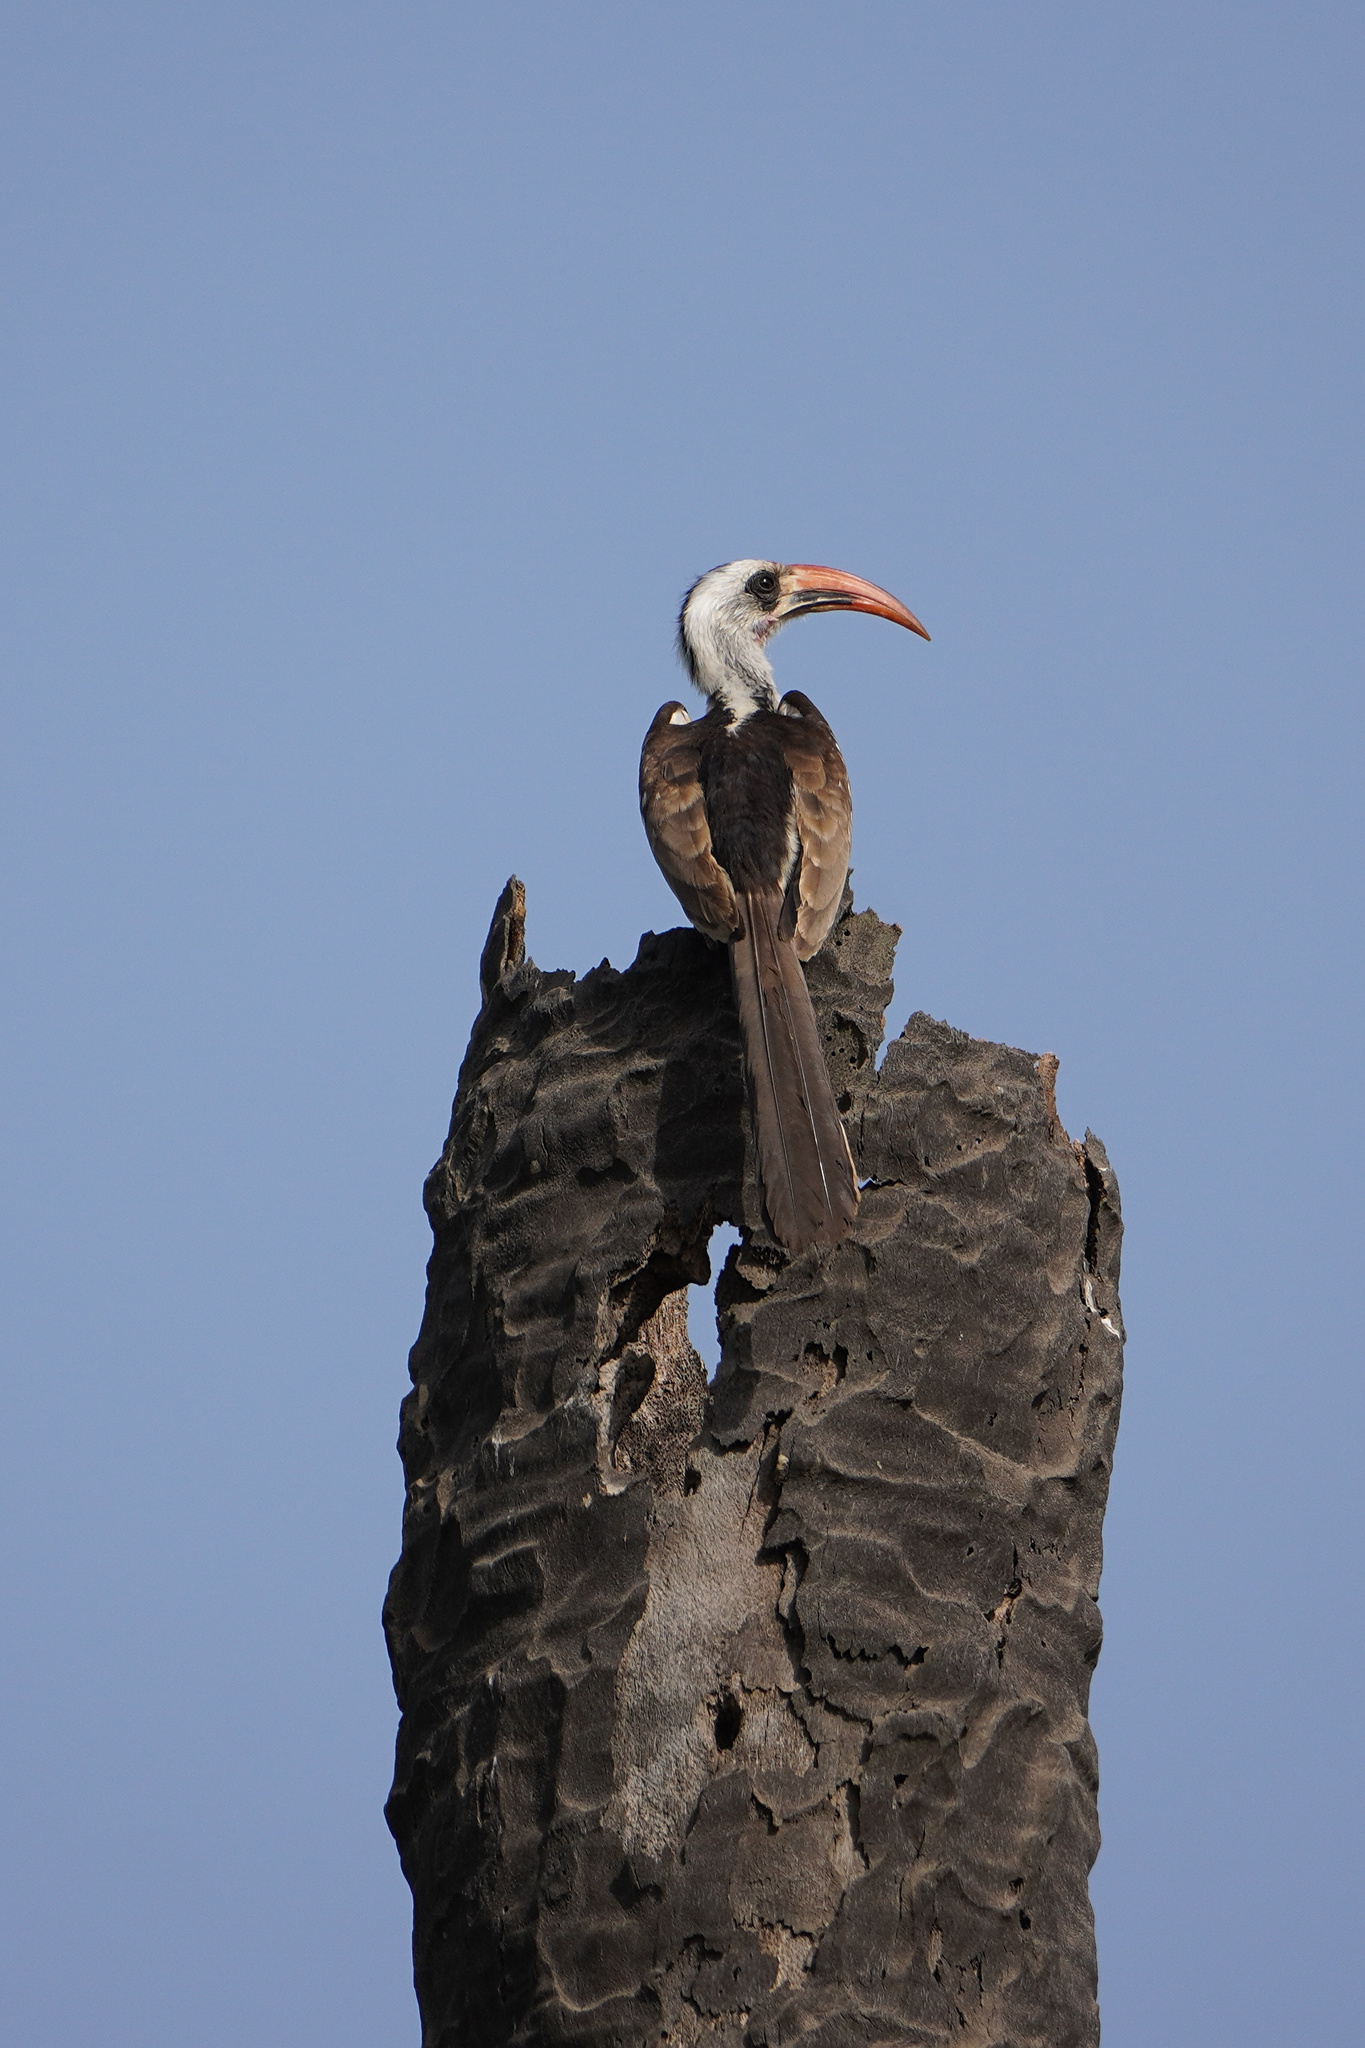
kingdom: Animalia
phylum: Chordata
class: Aves
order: Bucerotiformes
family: Bucerotidae
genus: Tockus
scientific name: Tockus kempi
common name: Western red-billed hornbill
